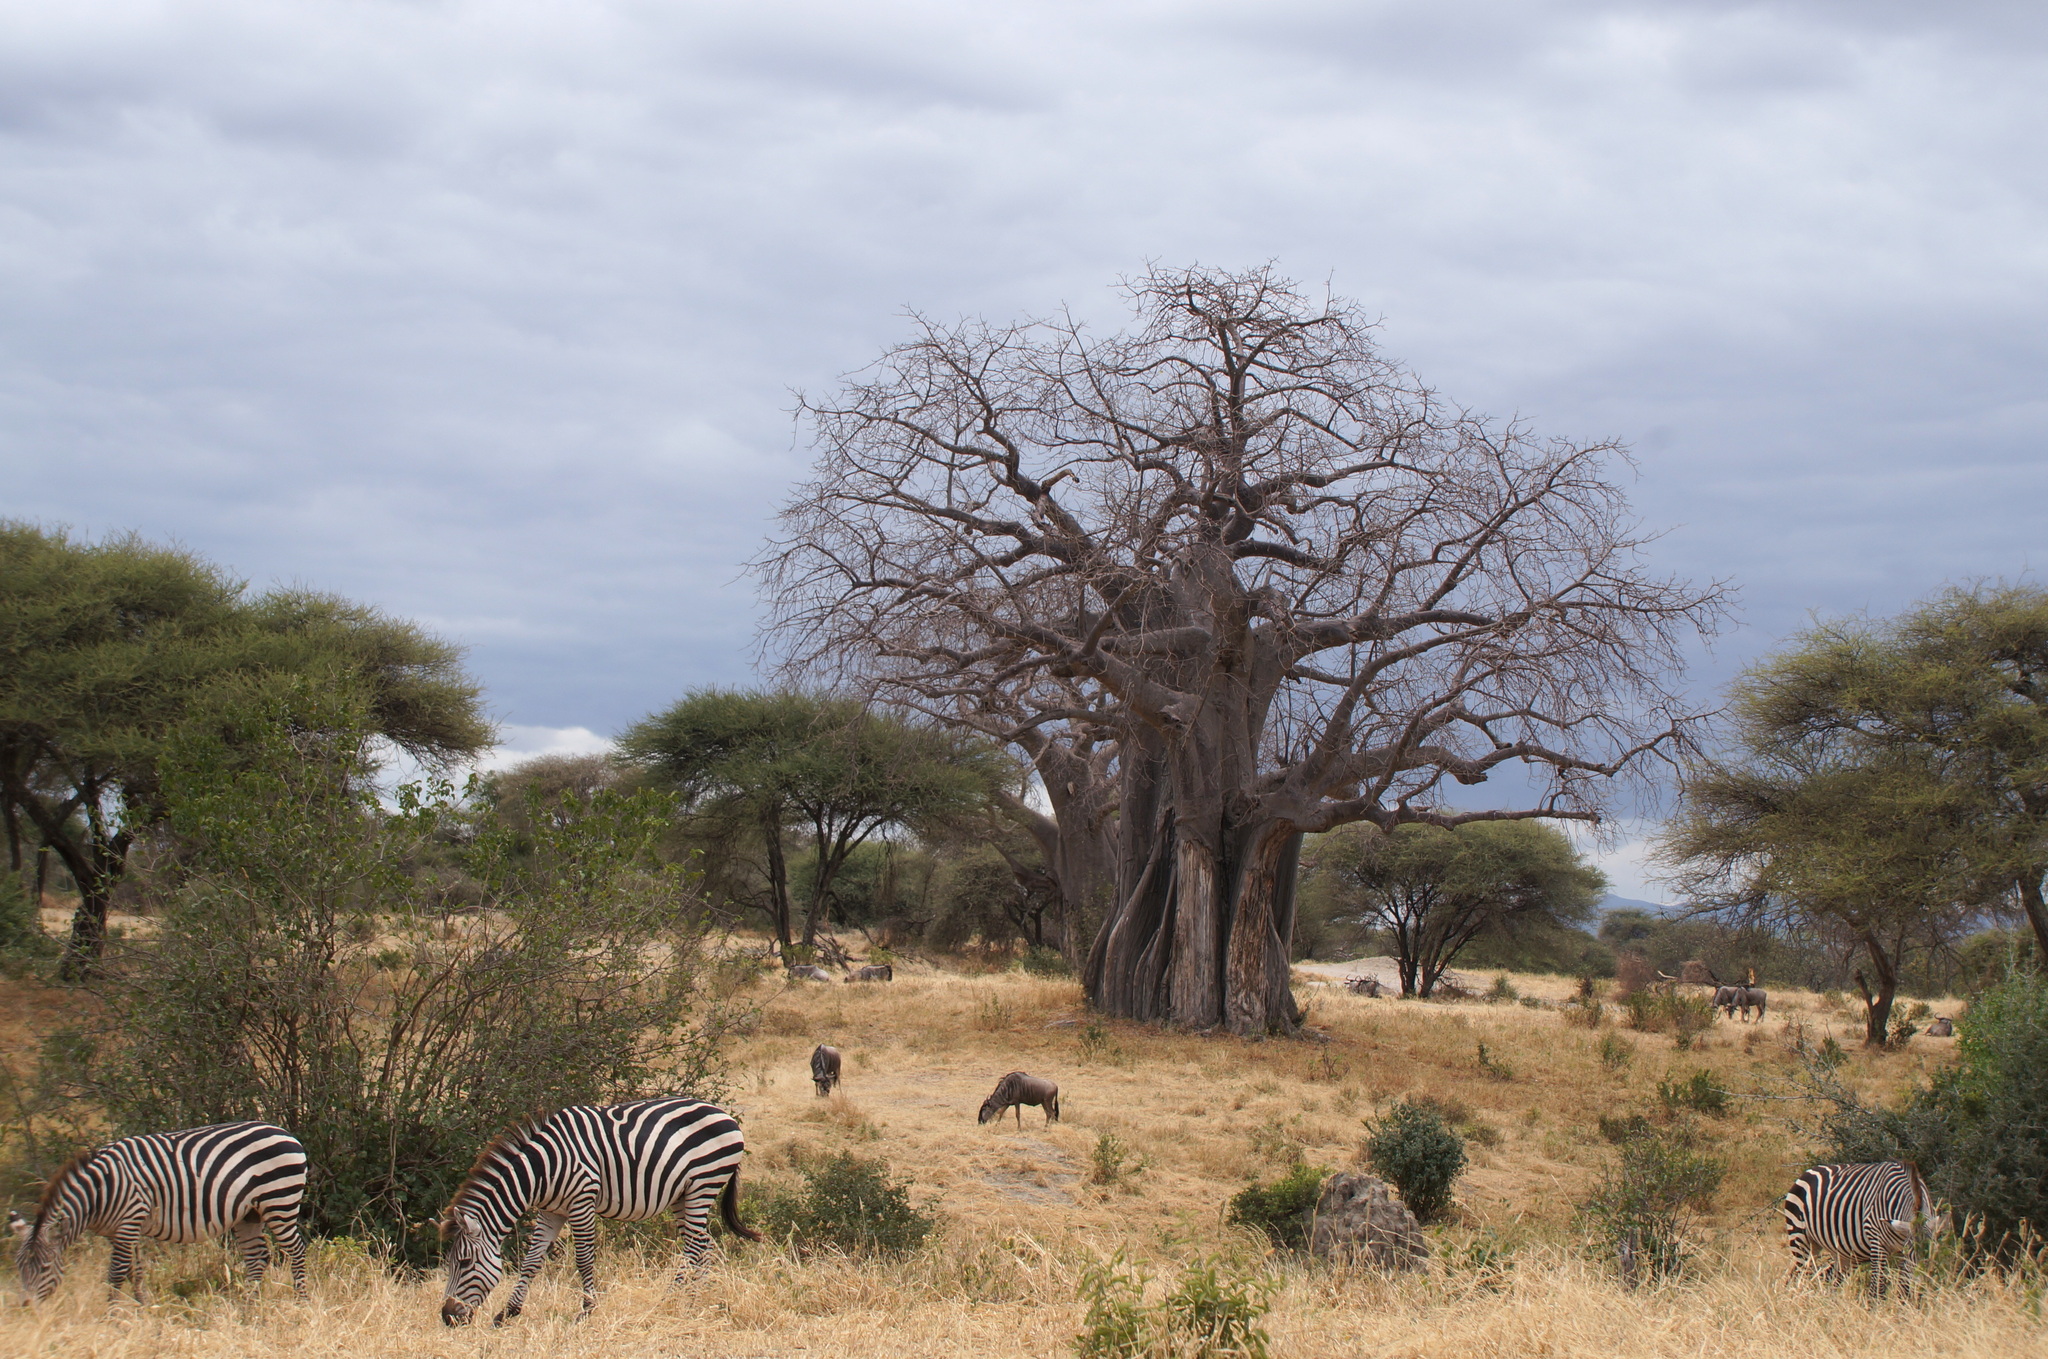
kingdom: Plantae
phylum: Tracheophyta
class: Magnoliopsida
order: Malvales
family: Malvaceae
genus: Adansonia
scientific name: Adansonia digitata
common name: Dead-rat-tree
